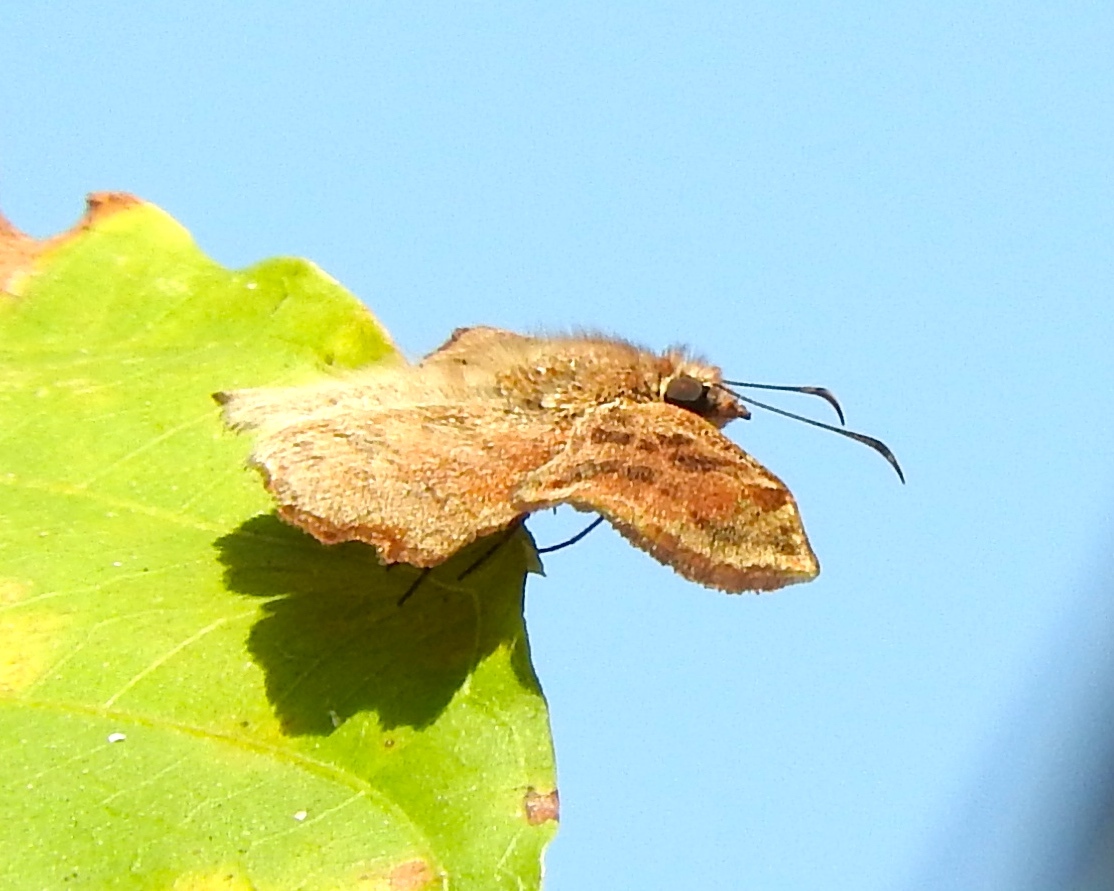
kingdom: Animalia
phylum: Arthropoda
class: Insecta
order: Lepidoptera
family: Hesperiidae
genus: Antigonus
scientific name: Antigonus erosus
